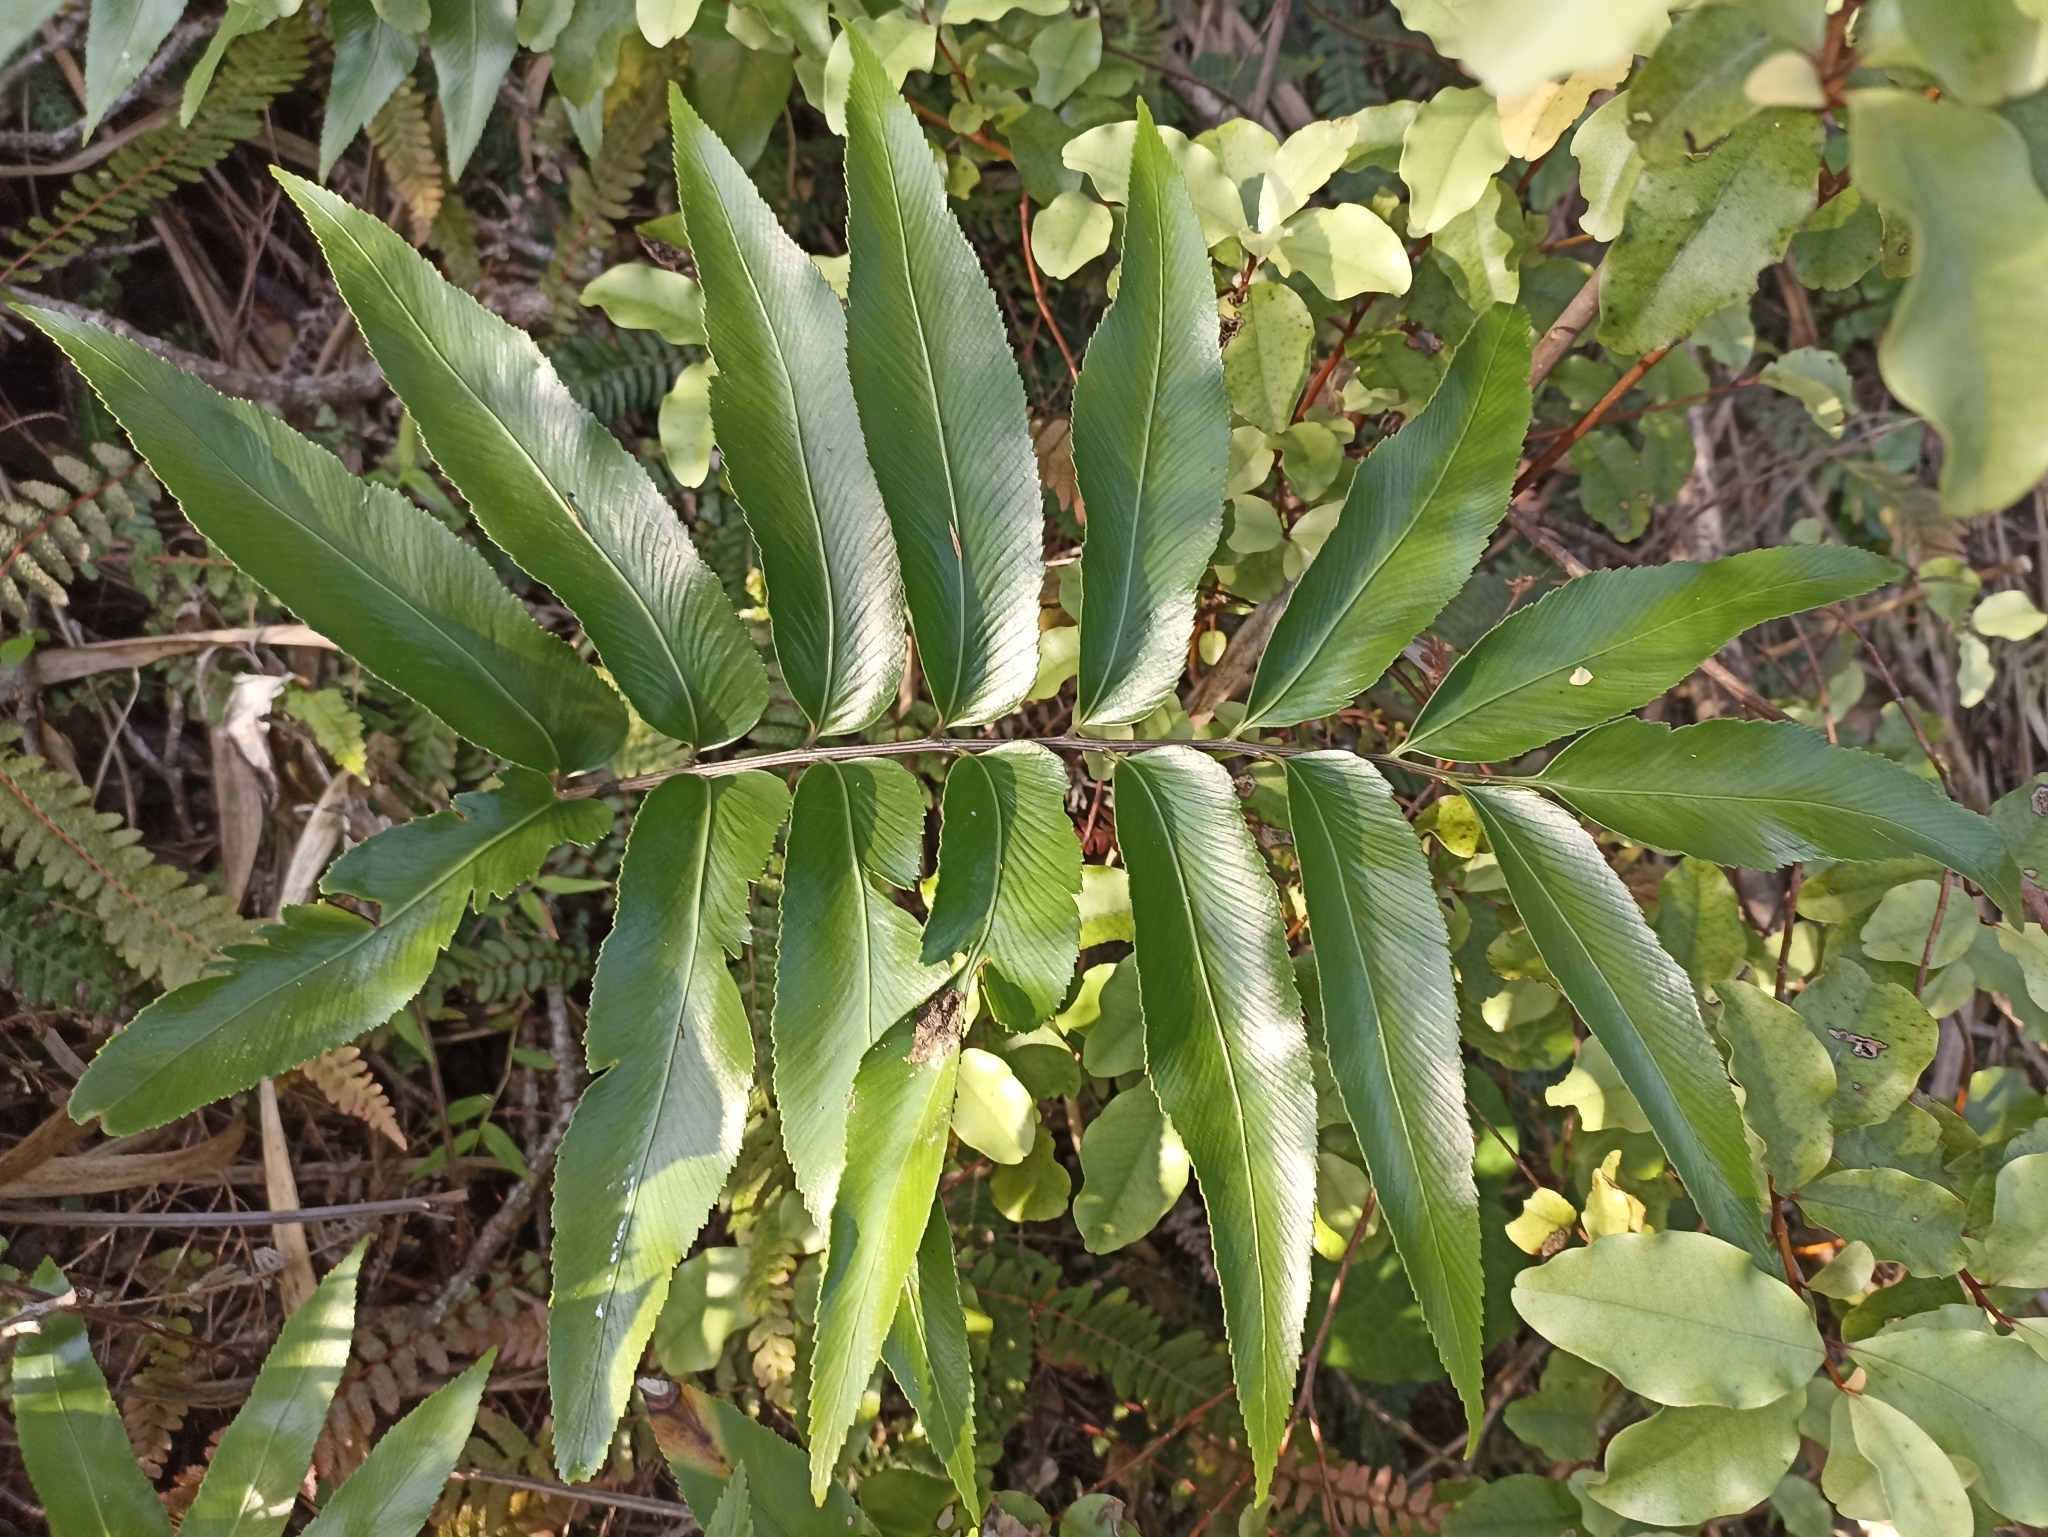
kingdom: Plantae
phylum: Tracheophyta
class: Polypodiopsida
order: Polypodiales
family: Aspleniaceae
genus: Asplenium
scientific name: Asplenium oblongifolium
